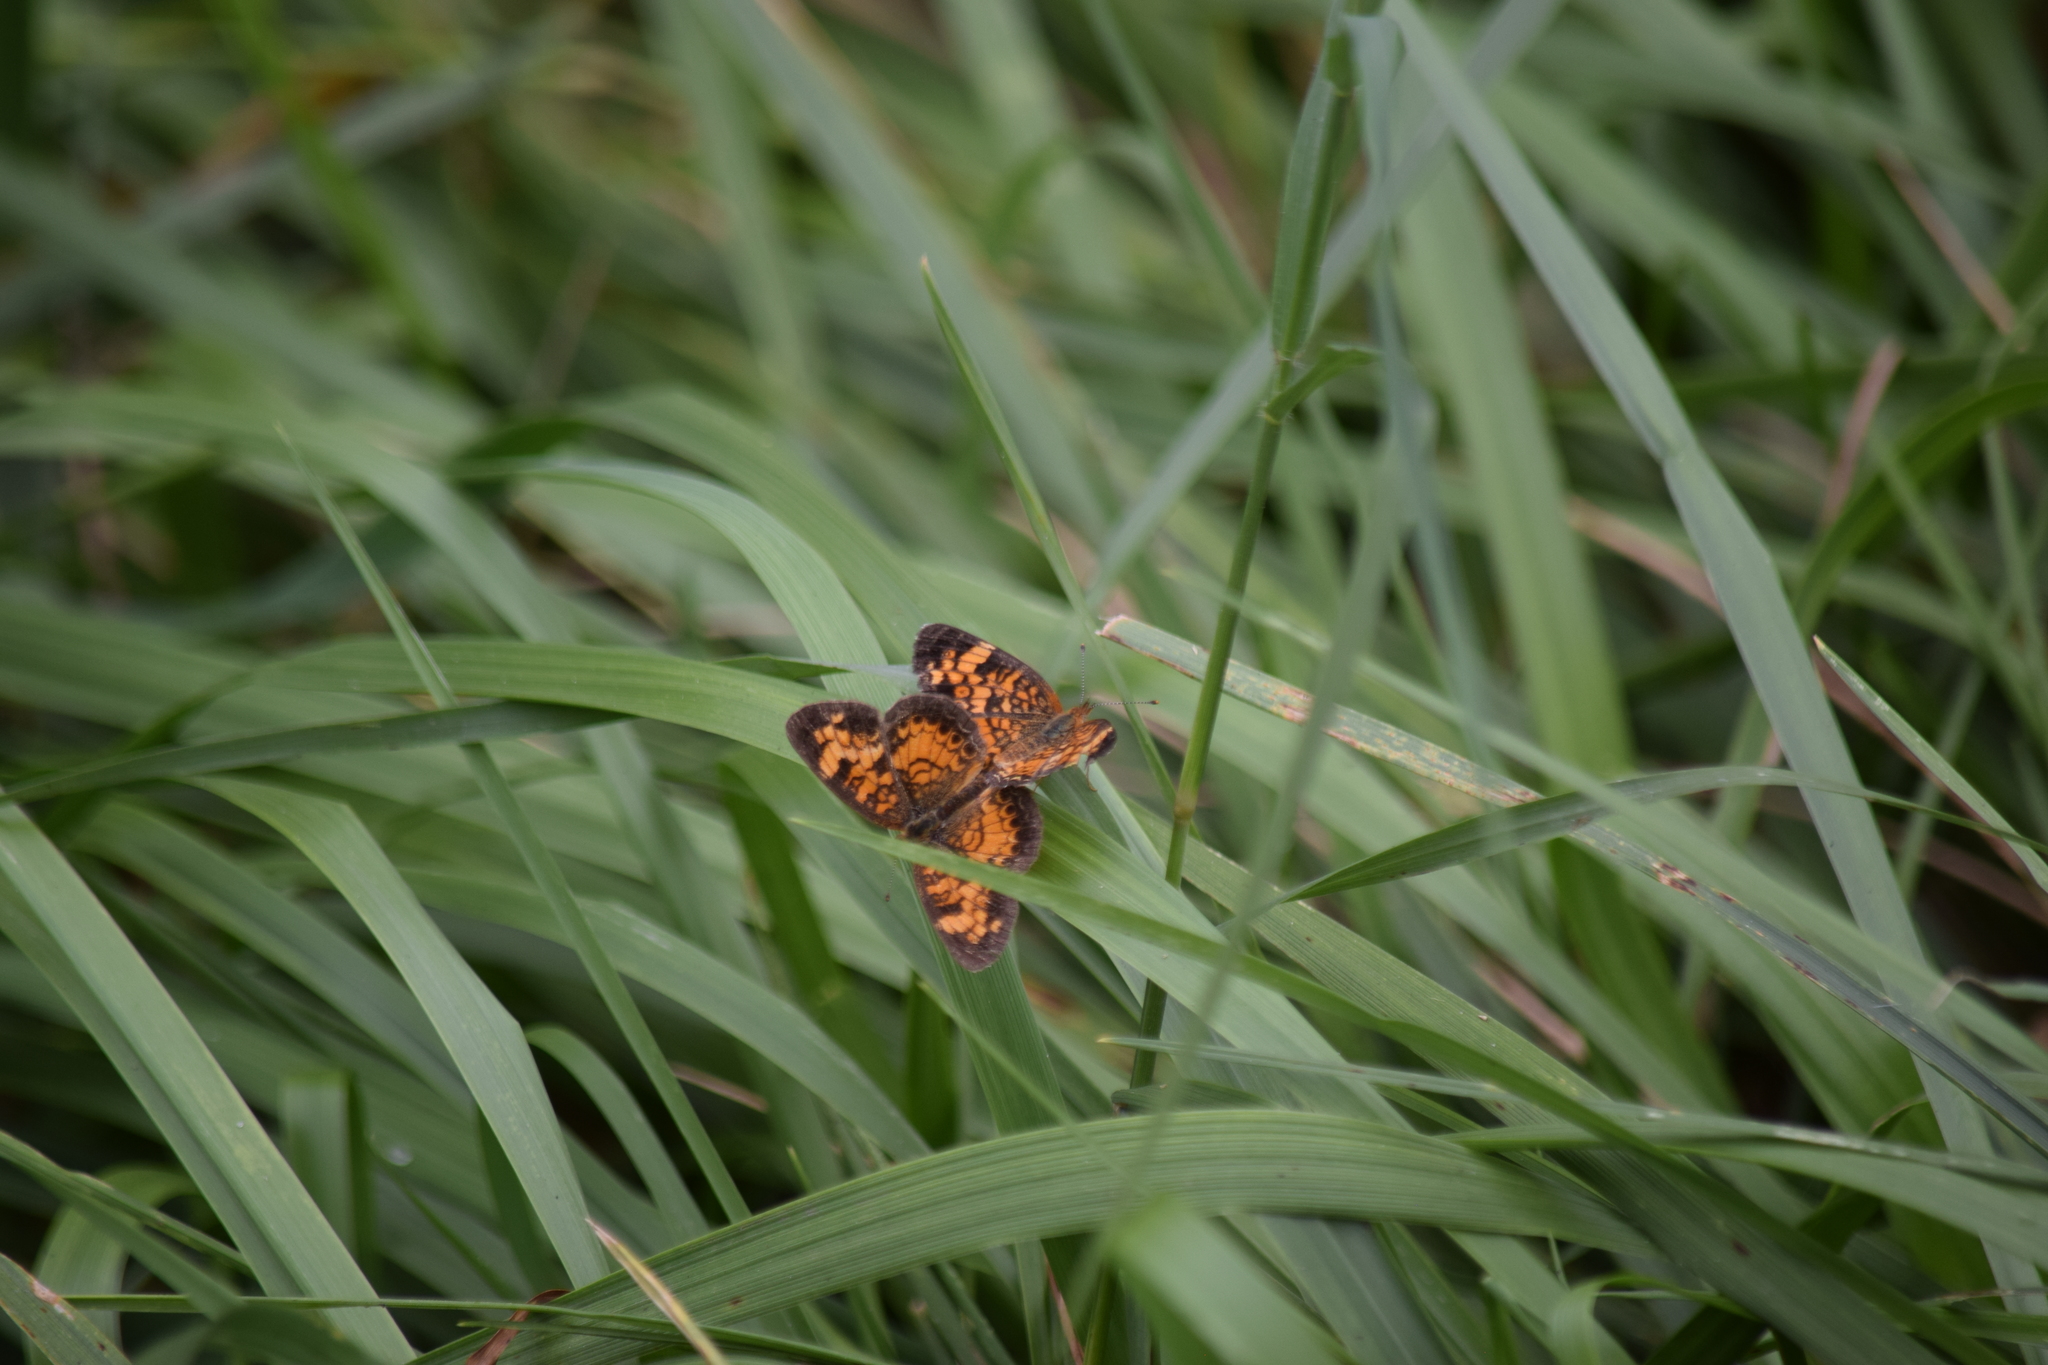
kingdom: Animalia
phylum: Arthropoda
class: Insecta
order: Lepidoptera
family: Nymphalidae
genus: Phyciodes
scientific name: Phyciodes tharos
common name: Pearl crescent
